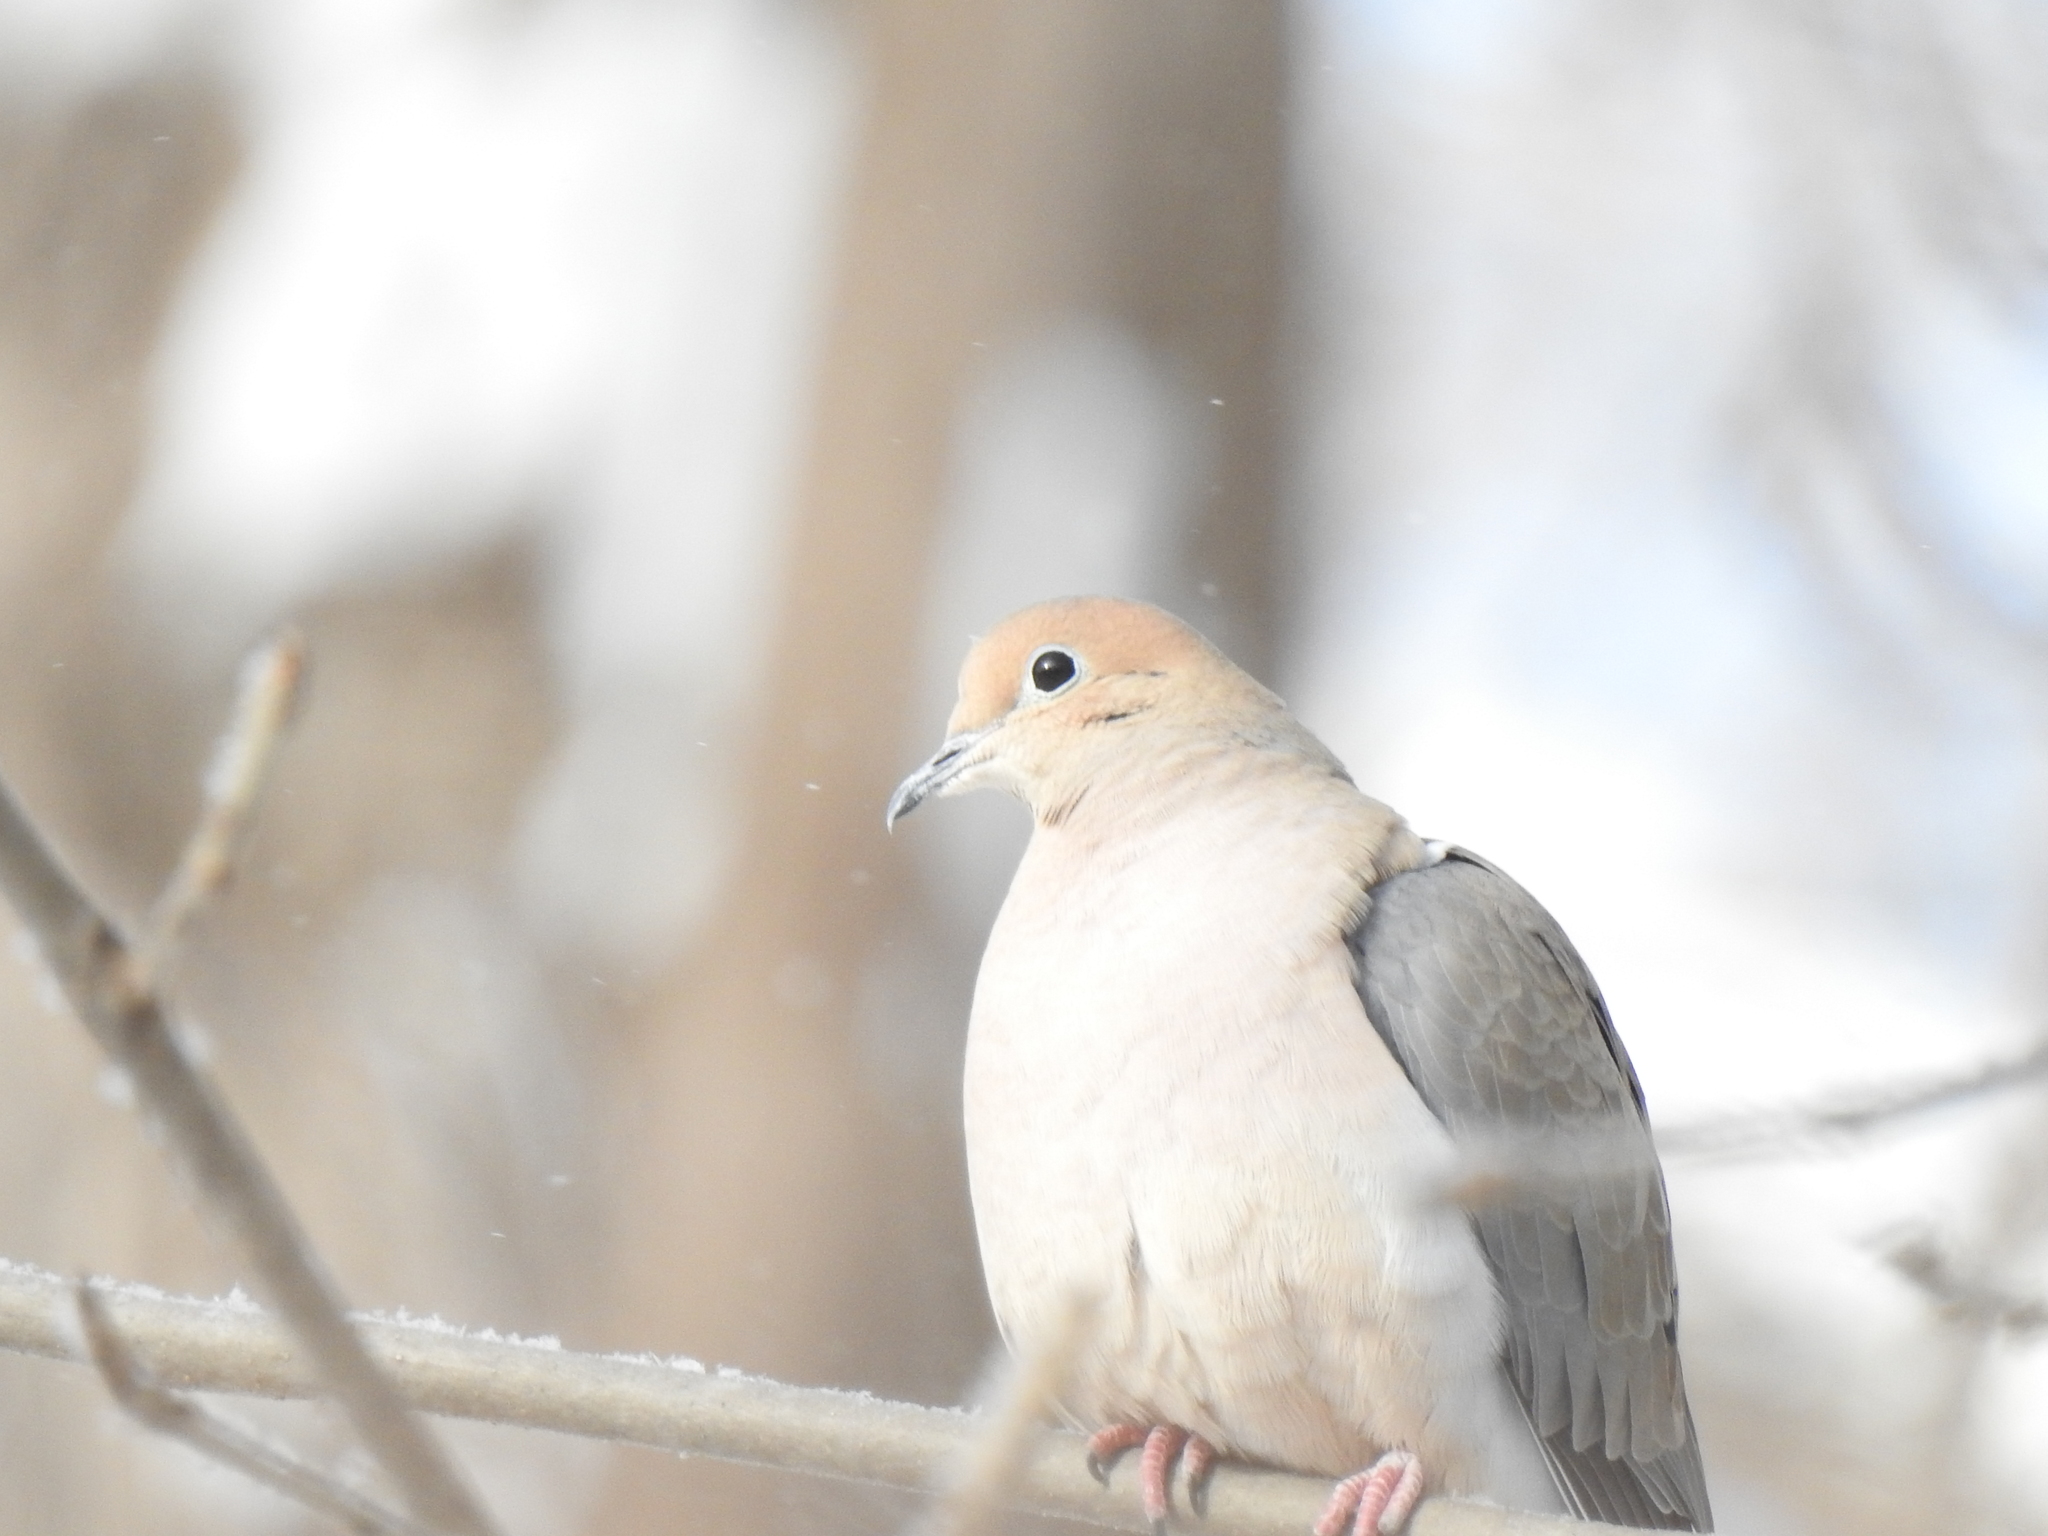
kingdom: Animalia
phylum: Chordata
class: Aves
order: Columbiformes
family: Columbidae
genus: Zenaida
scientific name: Zenaida macroura
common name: Mourning dove
